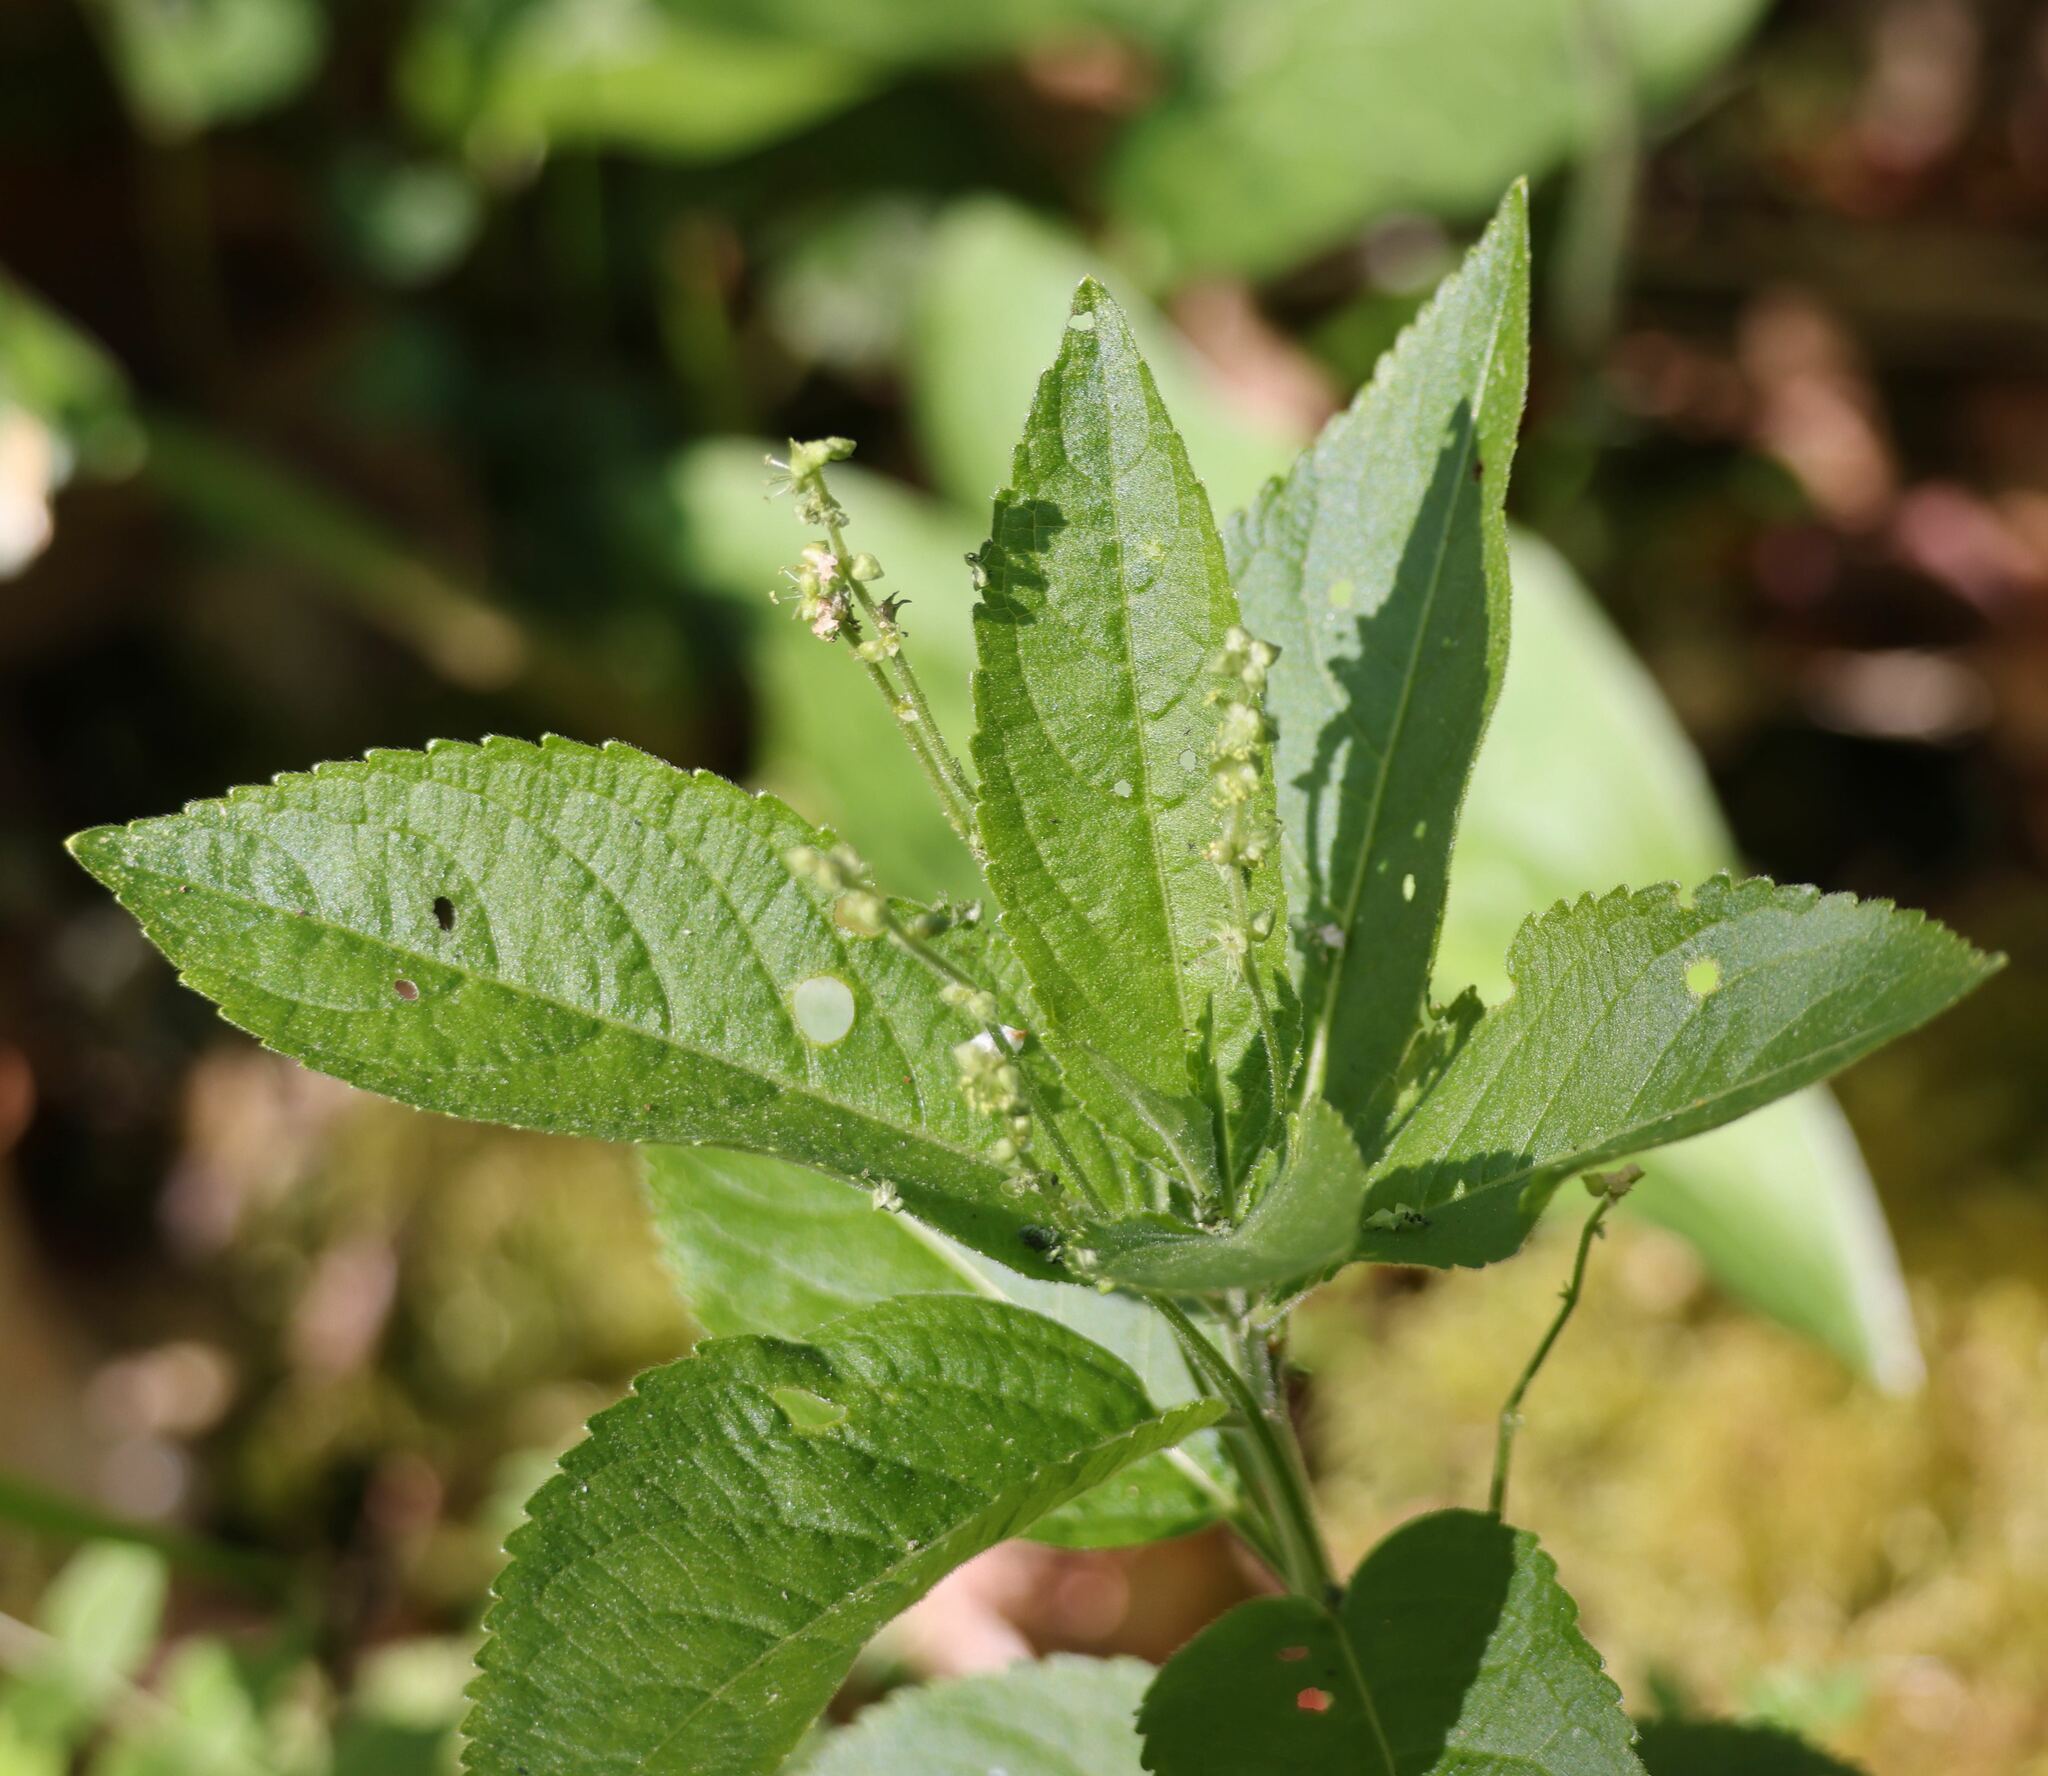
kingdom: Plantae
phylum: Tracheophyta
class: Magnoliopsida
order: Malpighiales
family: Euphorbiaceae
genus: Mercurialis
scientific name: Mercurialis perennis
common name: Dog mercury
